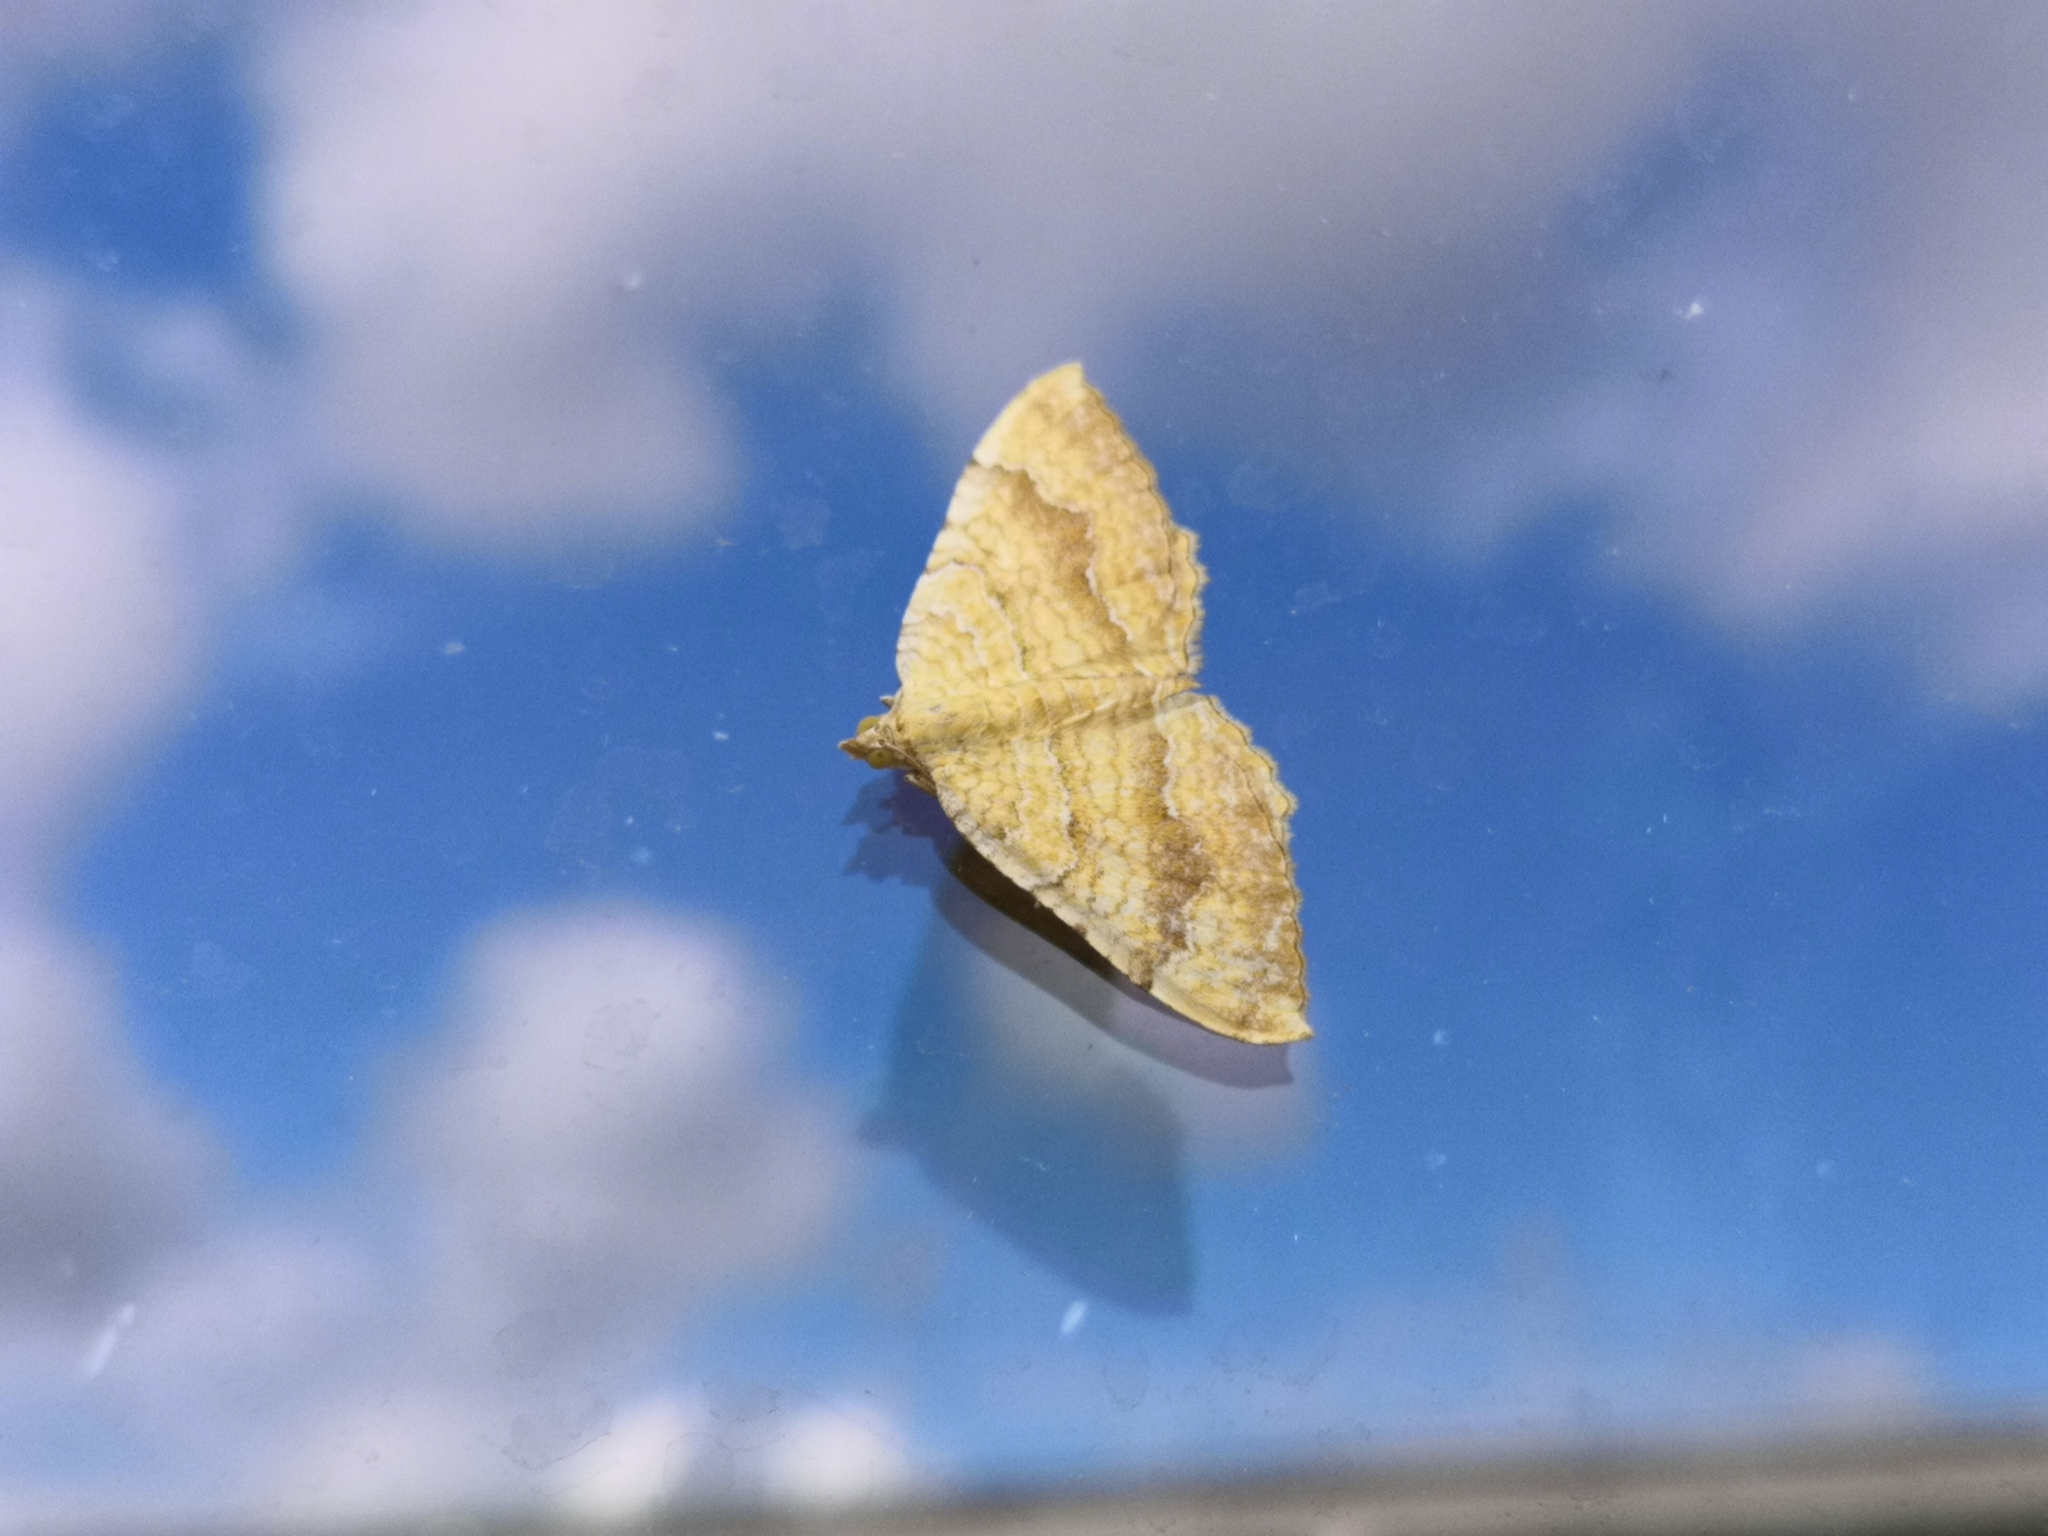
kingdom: Animalia
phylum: Arthropoda
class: Insecta
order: Lepidoptera
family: Geometridae
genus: Camptogramma
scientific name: Camptogramma bilineata
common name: Yellow shell
